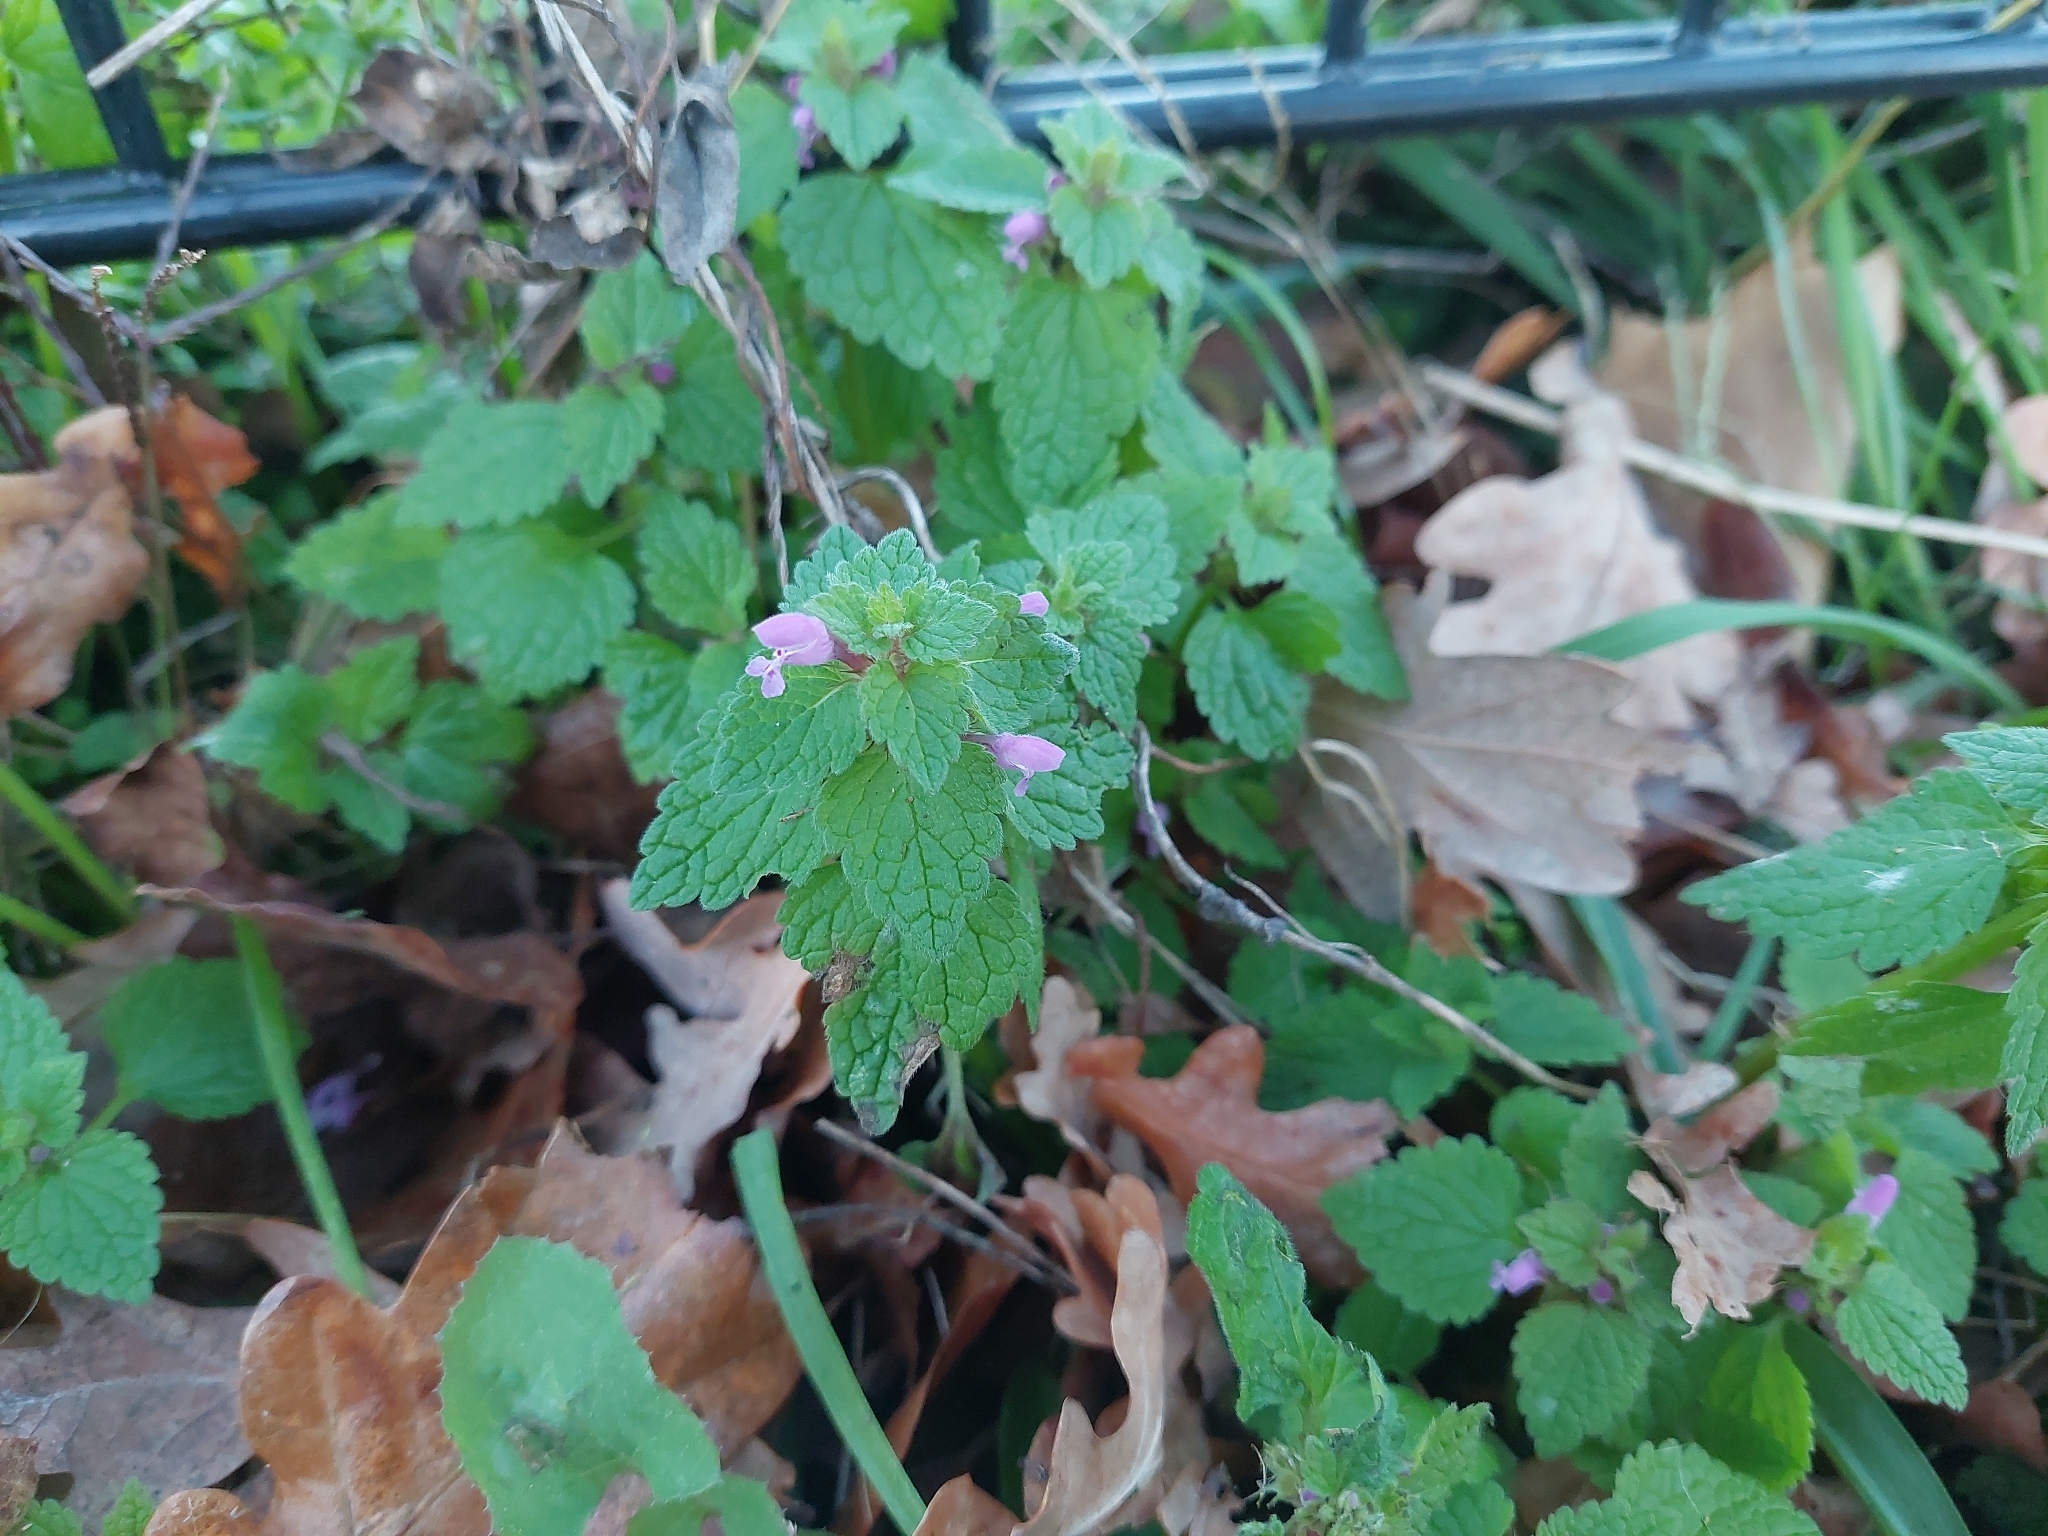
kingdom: Plantae
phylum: Tracheophyta
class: Magnoliopsida
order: Lamiales
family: Lamiaceae
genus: Lamium
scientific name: Lamium purpureum
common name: Red dead-nettle
